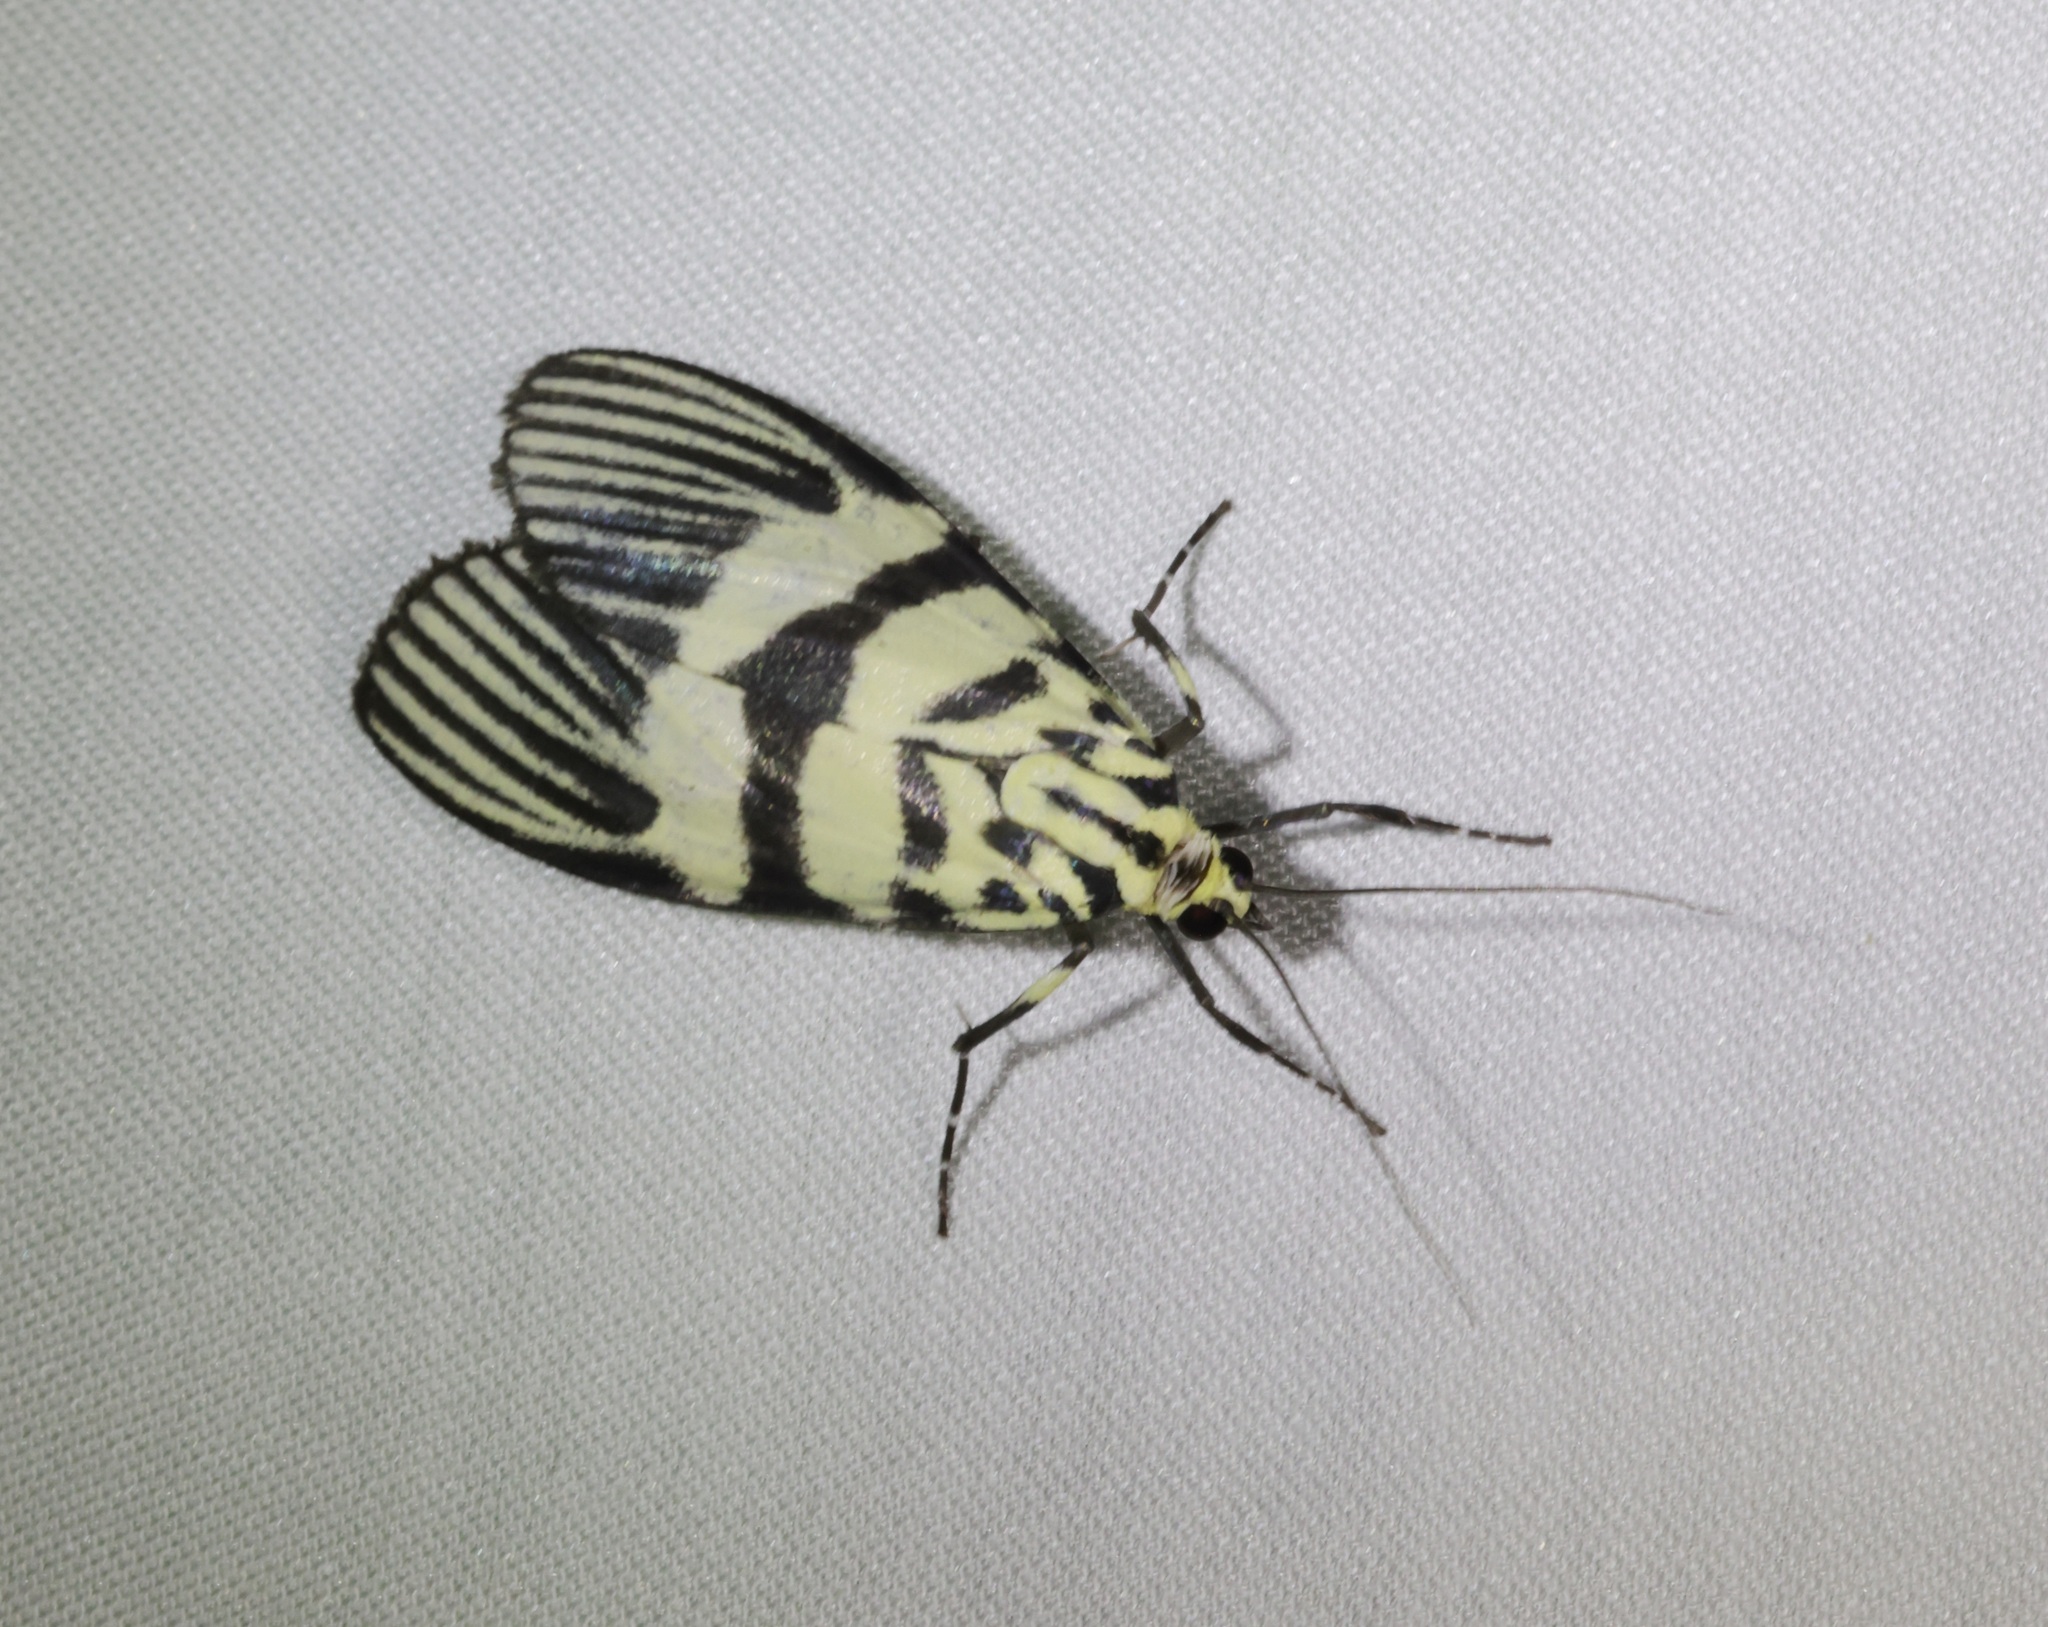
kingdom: Animalia
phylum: Arthropoda
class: Insecta
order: Lepidoptera
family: Crambidae
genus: Heortia
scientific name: Heortia vitessoides
